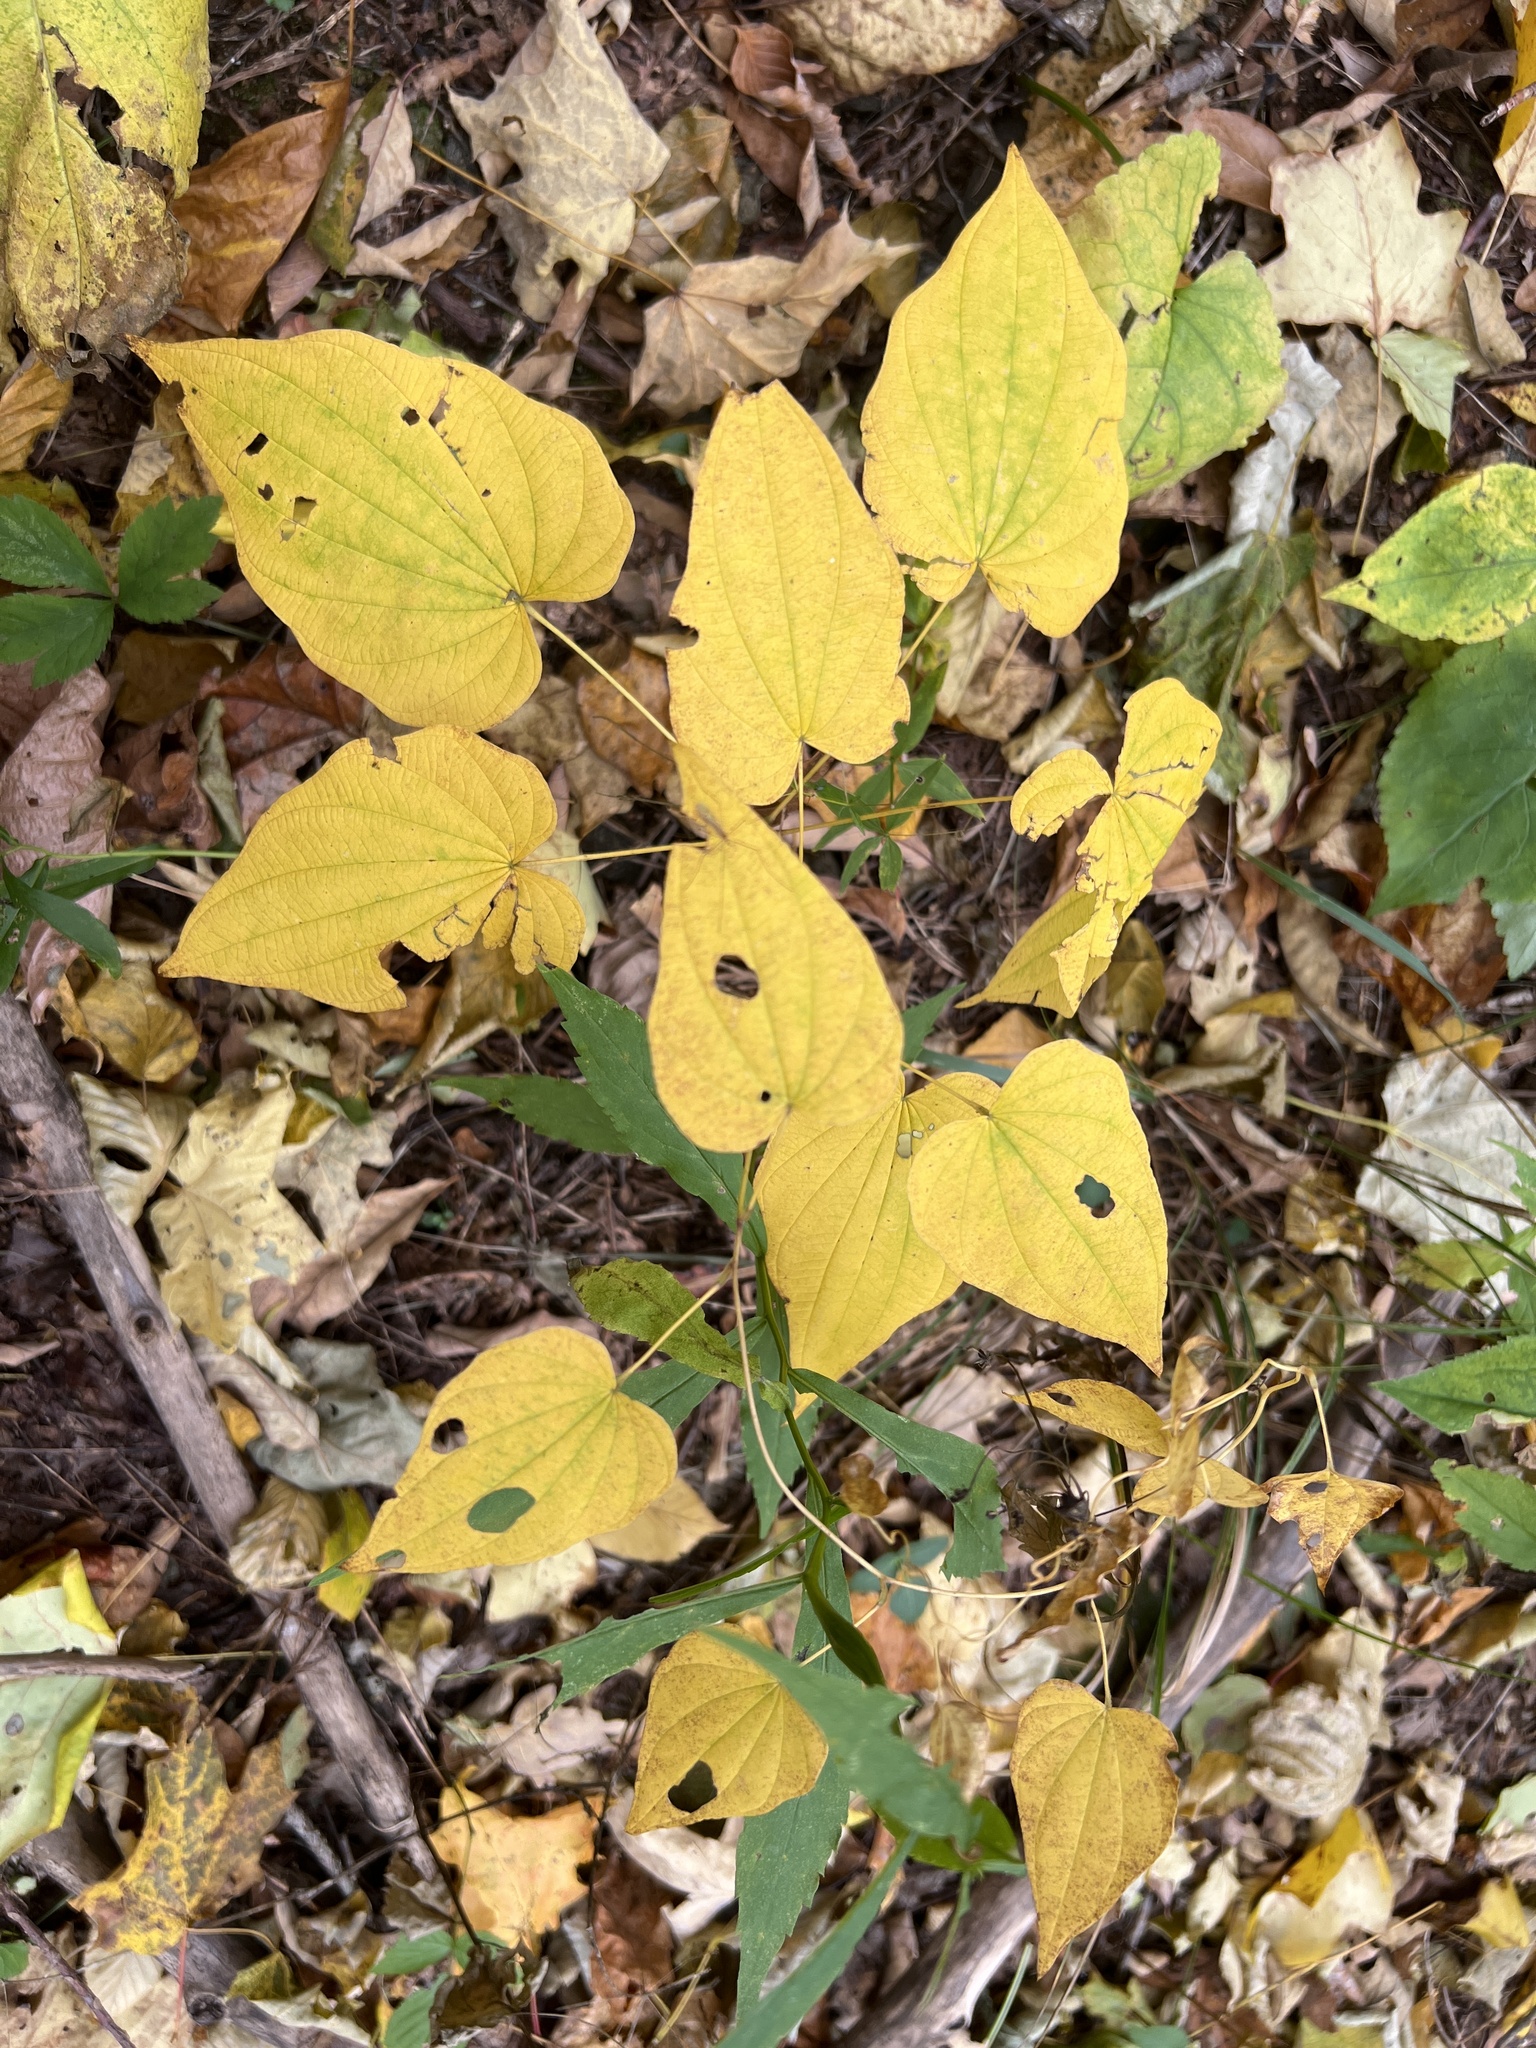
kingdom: Plantae
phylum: Tracheophyta
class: Liliopsida
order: Dioscoreales
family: Dioscoreaceae
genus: Dioscorea
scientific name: Dioscorea villosa
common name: Wild yam
